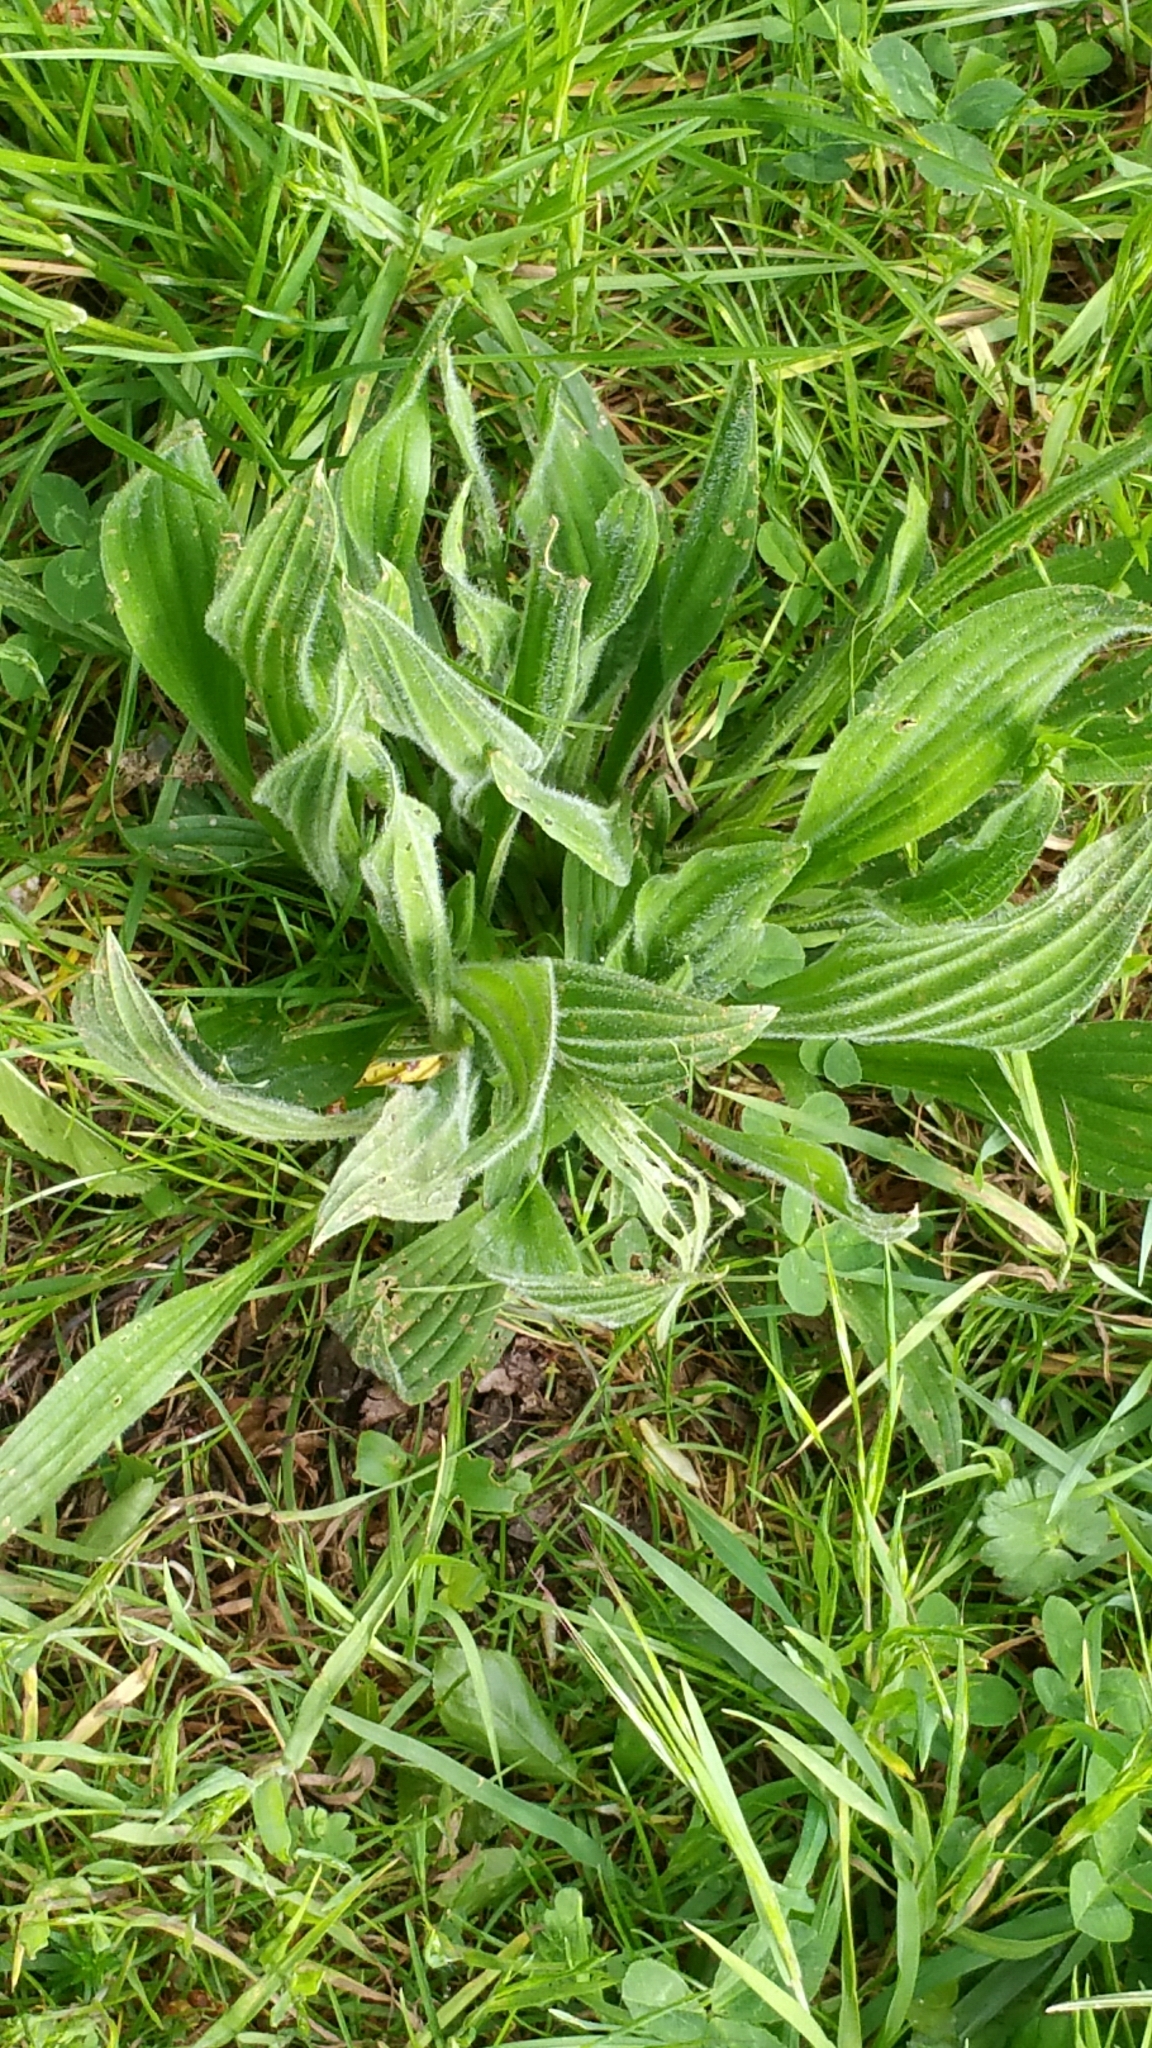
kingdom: Plantae
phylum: Tracheophyta
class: Magnoliopsida
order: Lamiales
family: Plantaginaceae
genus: Plantago
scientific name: Plantago lanceolata
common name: Ribwort plantain
